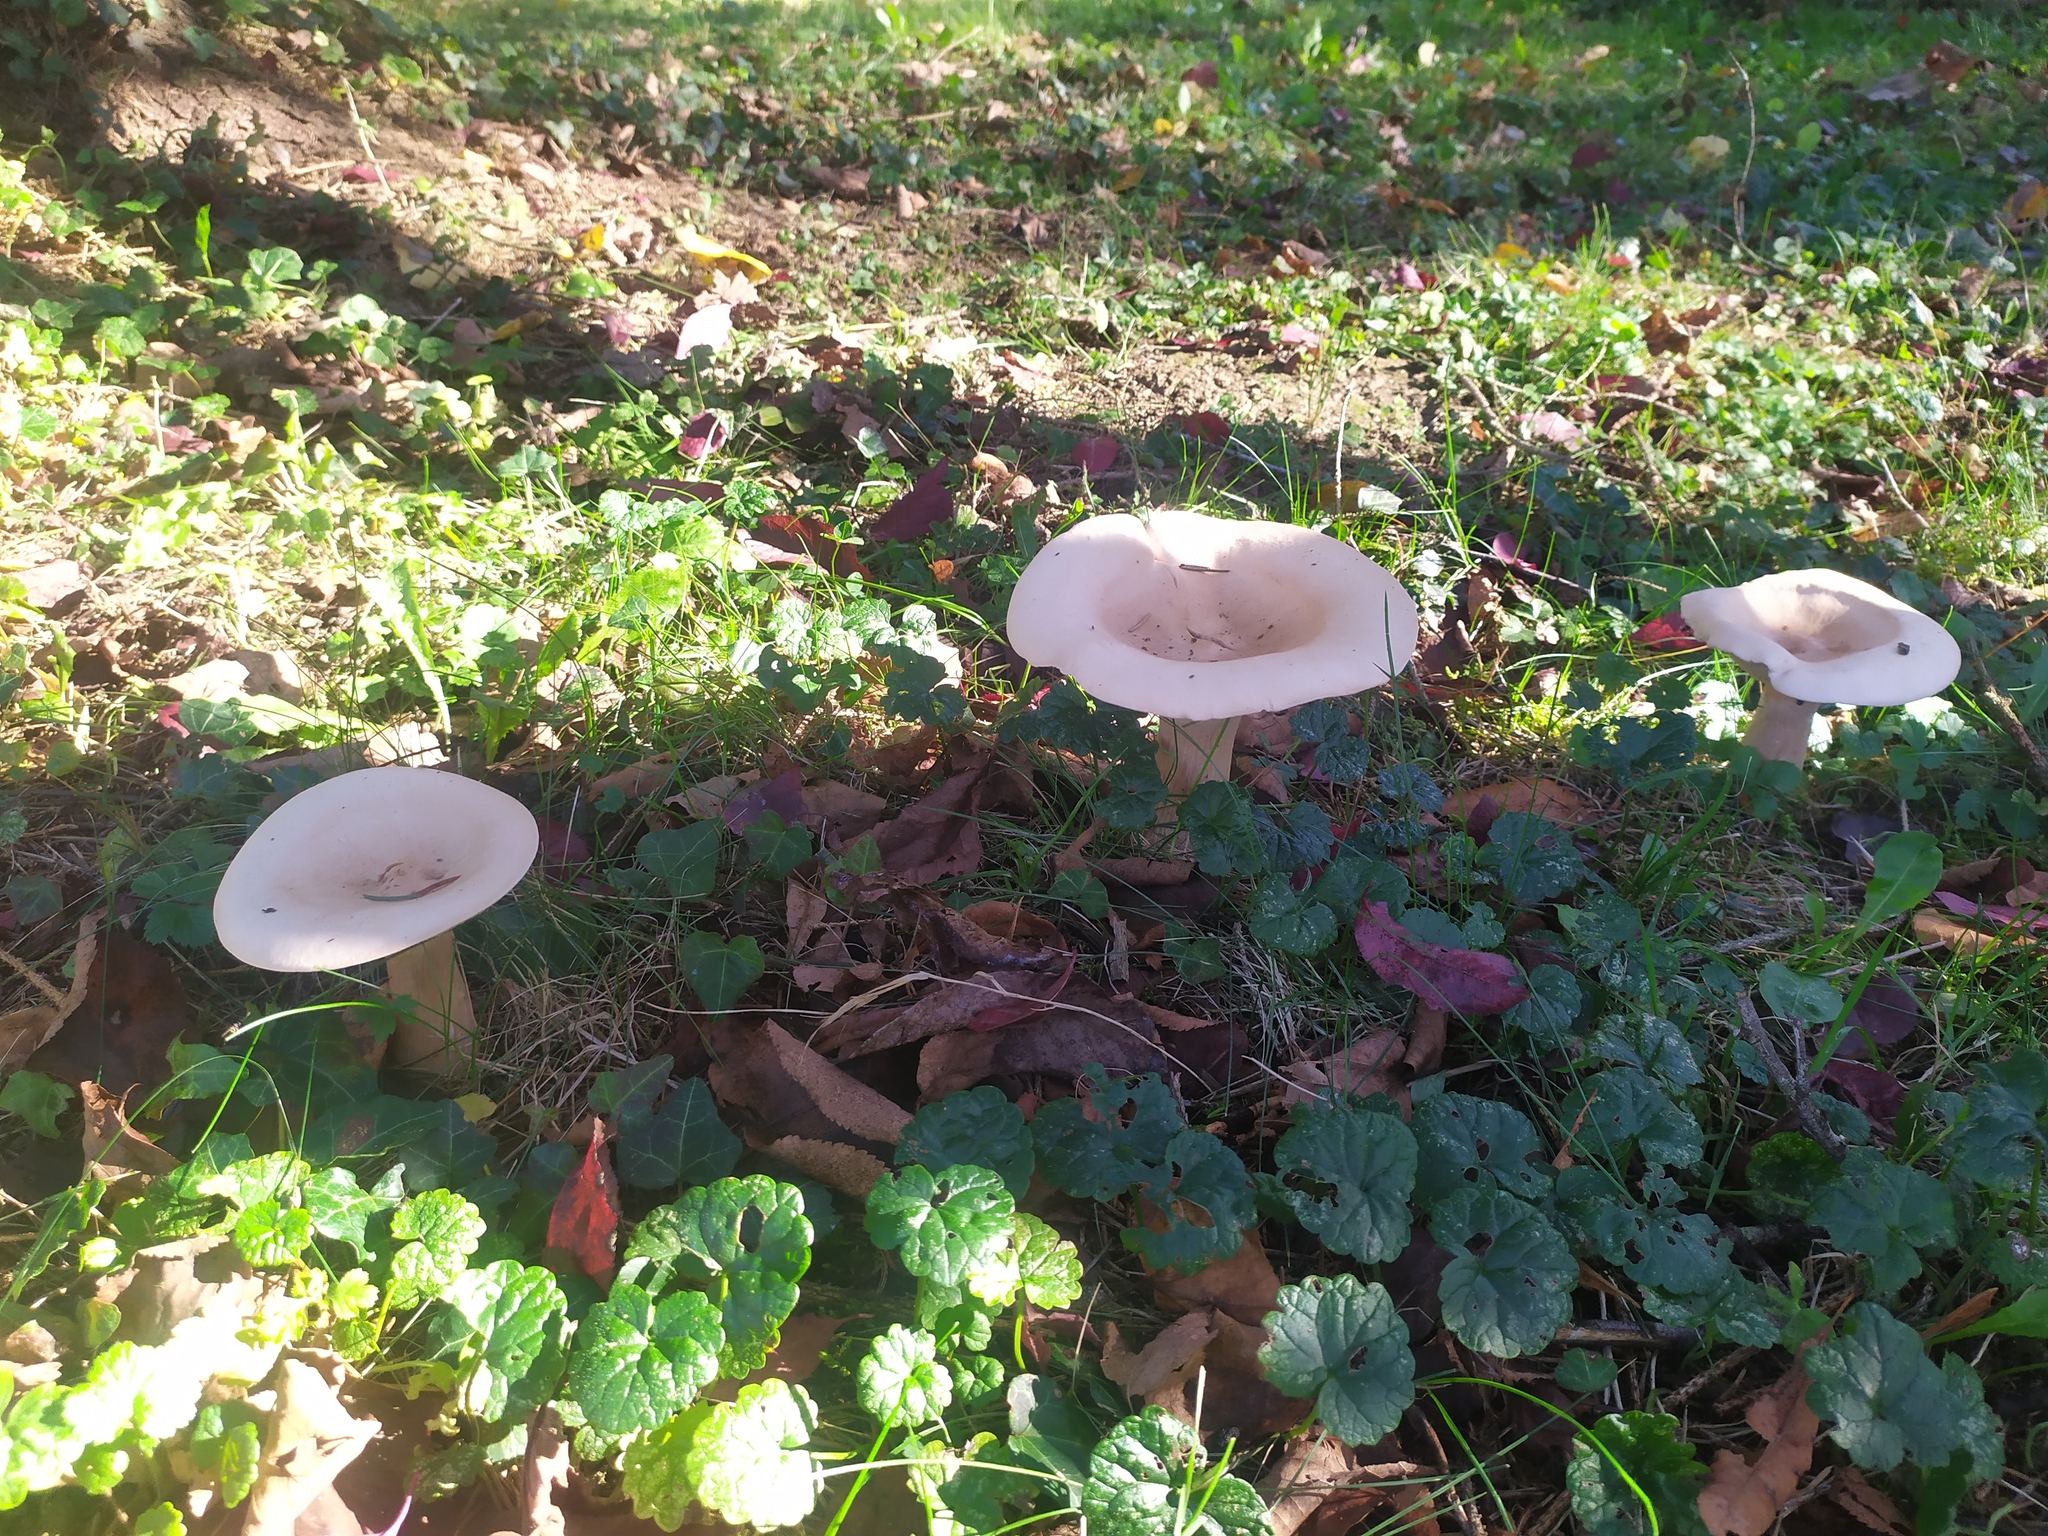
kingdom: Fungi
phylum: Basidiomycota
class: Agaricomycetes
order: Agaricales
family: Tricholomataceae
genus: Infundibulicybe
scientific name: Infundibulicybe geotropa
